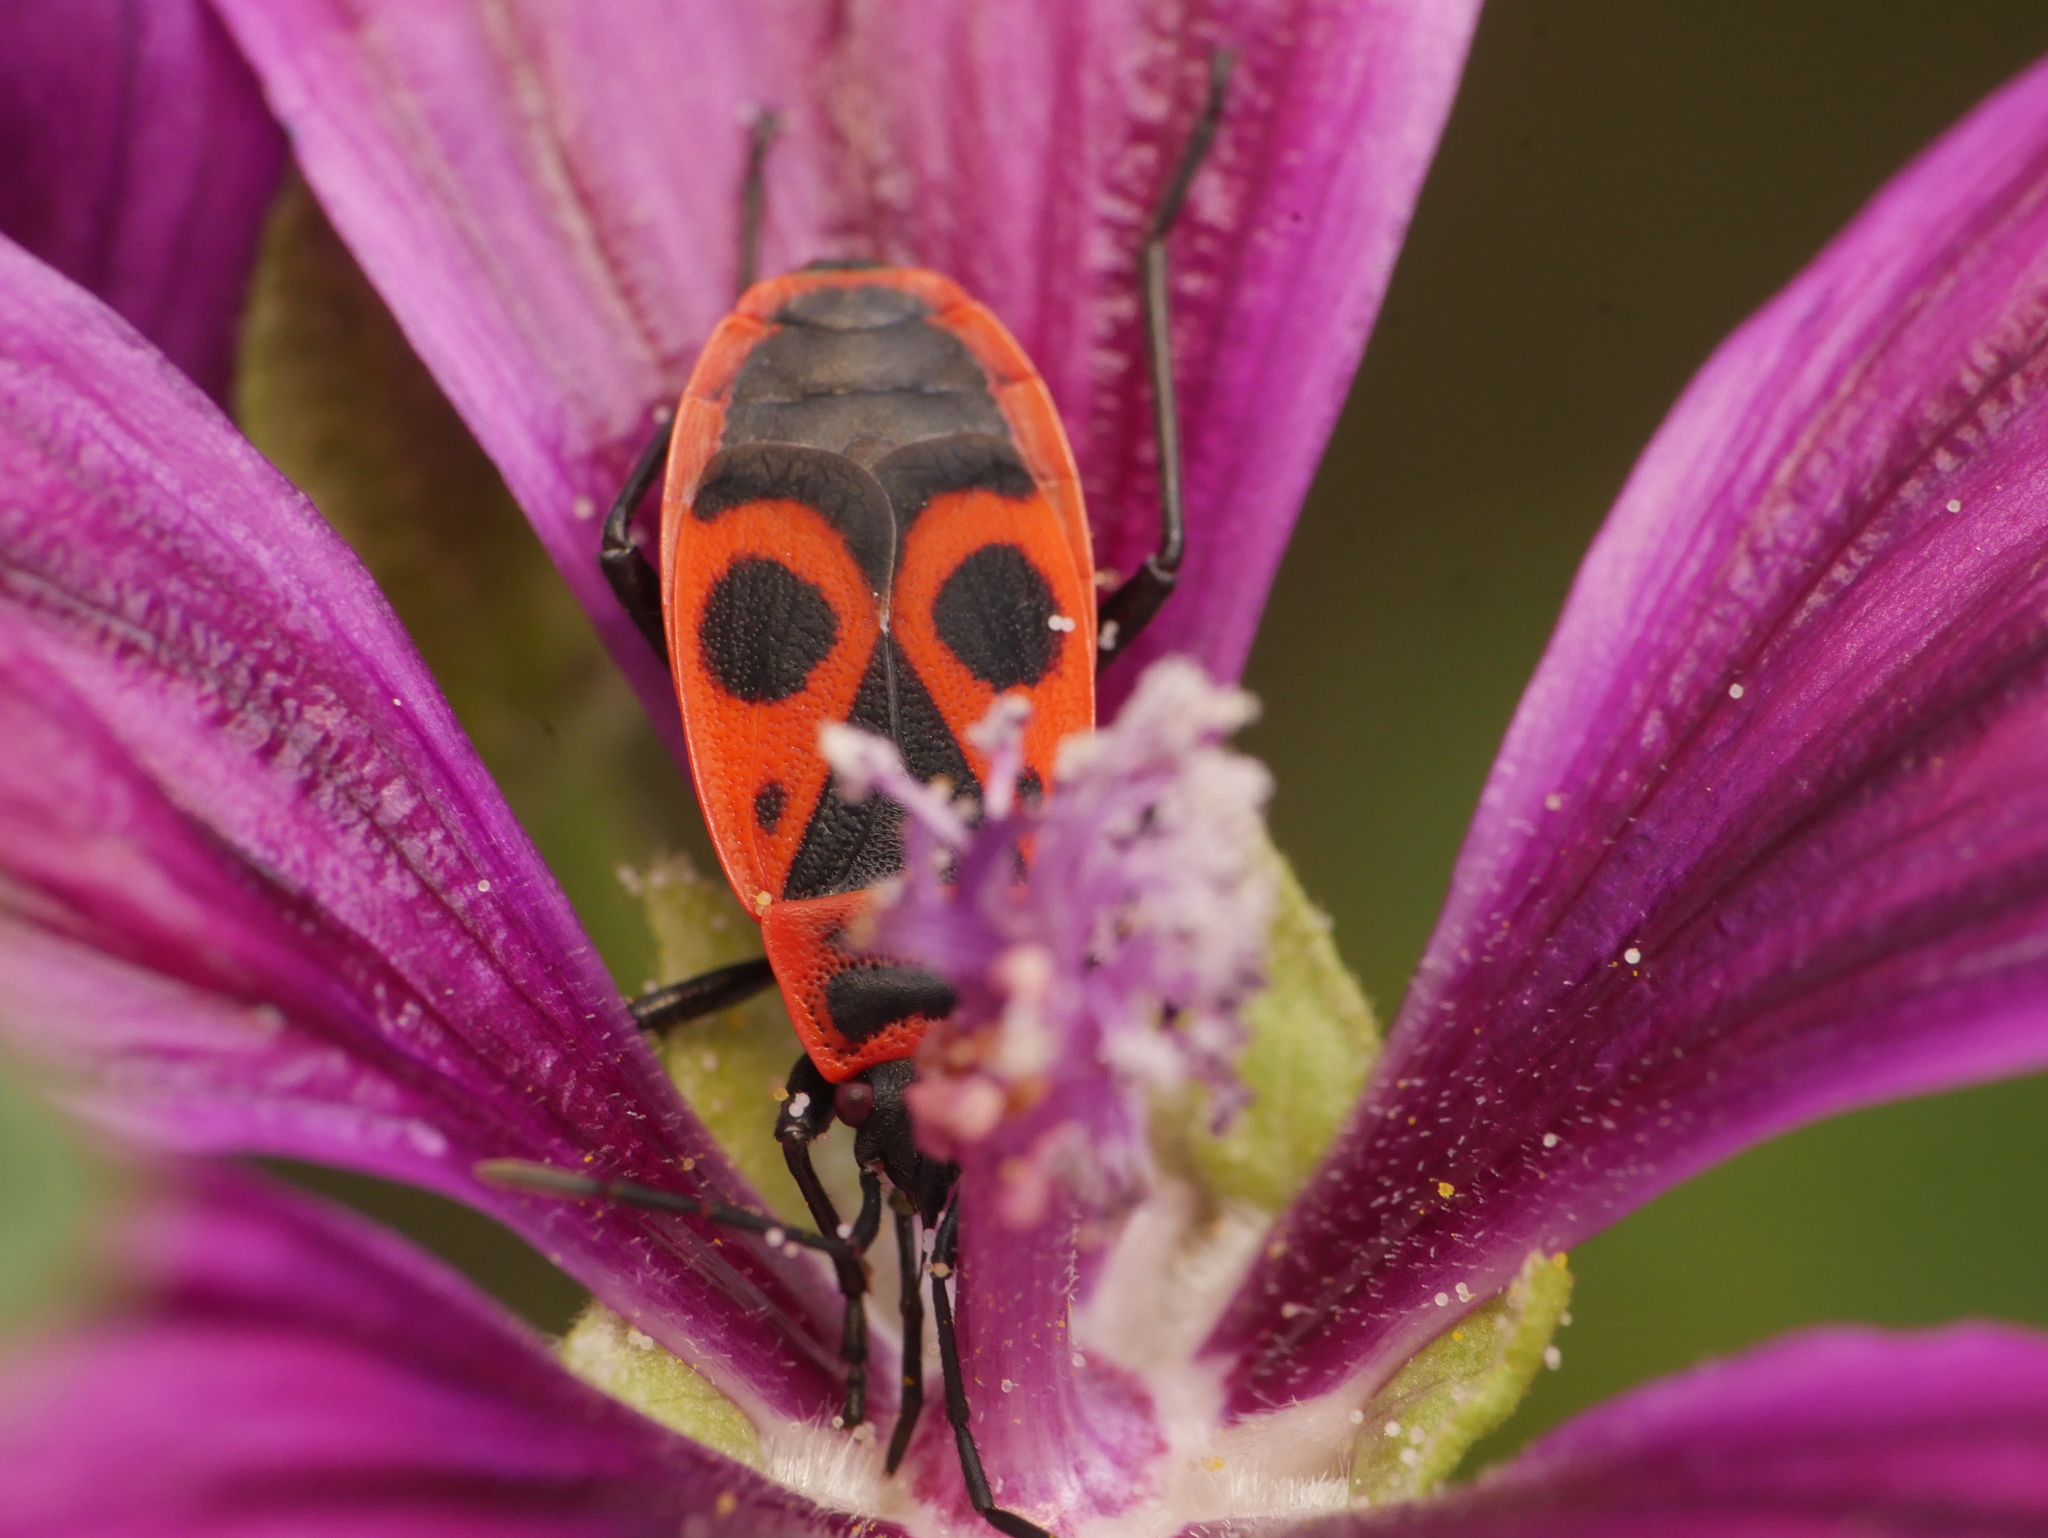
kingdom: Animalia
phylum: Arthropoda
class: Insecta
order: Hemiptera
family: Pyrrhocoridae
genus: Pyrrhocoris
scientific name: Pyrrhocoris apterus
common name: Firebug
